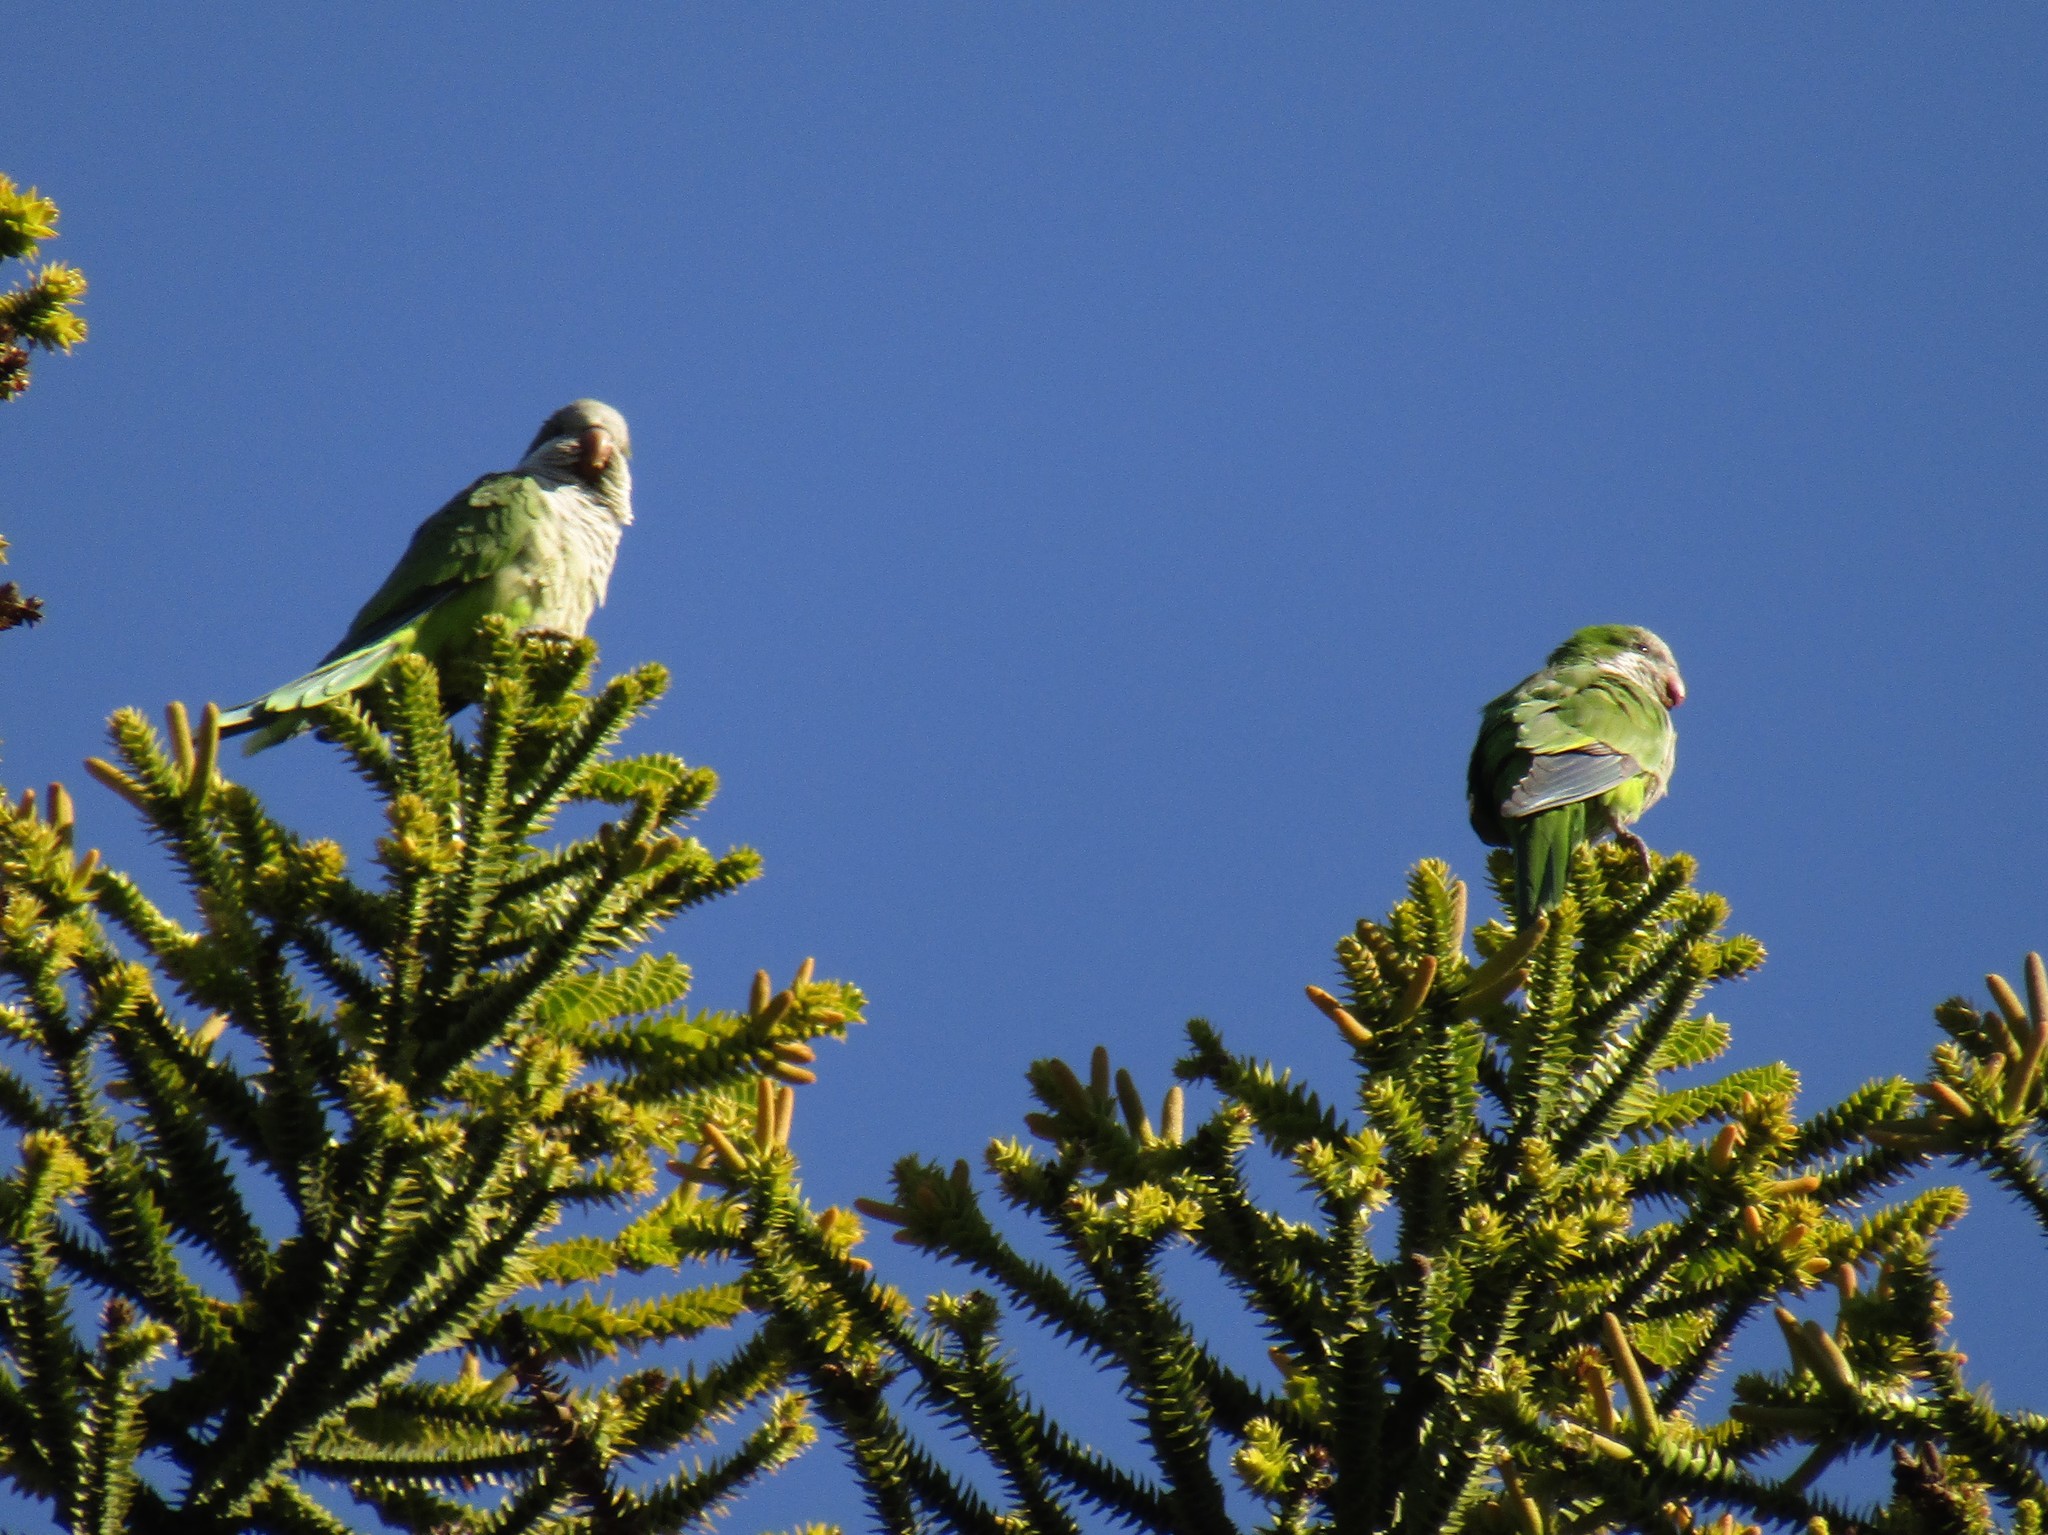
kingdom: Animalia
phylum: Chordata
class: Aves
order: Psittaciformes
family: Psittacidae
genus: Myiopsitta
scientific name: Myiopsitta monachus
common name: Monk parakeet
